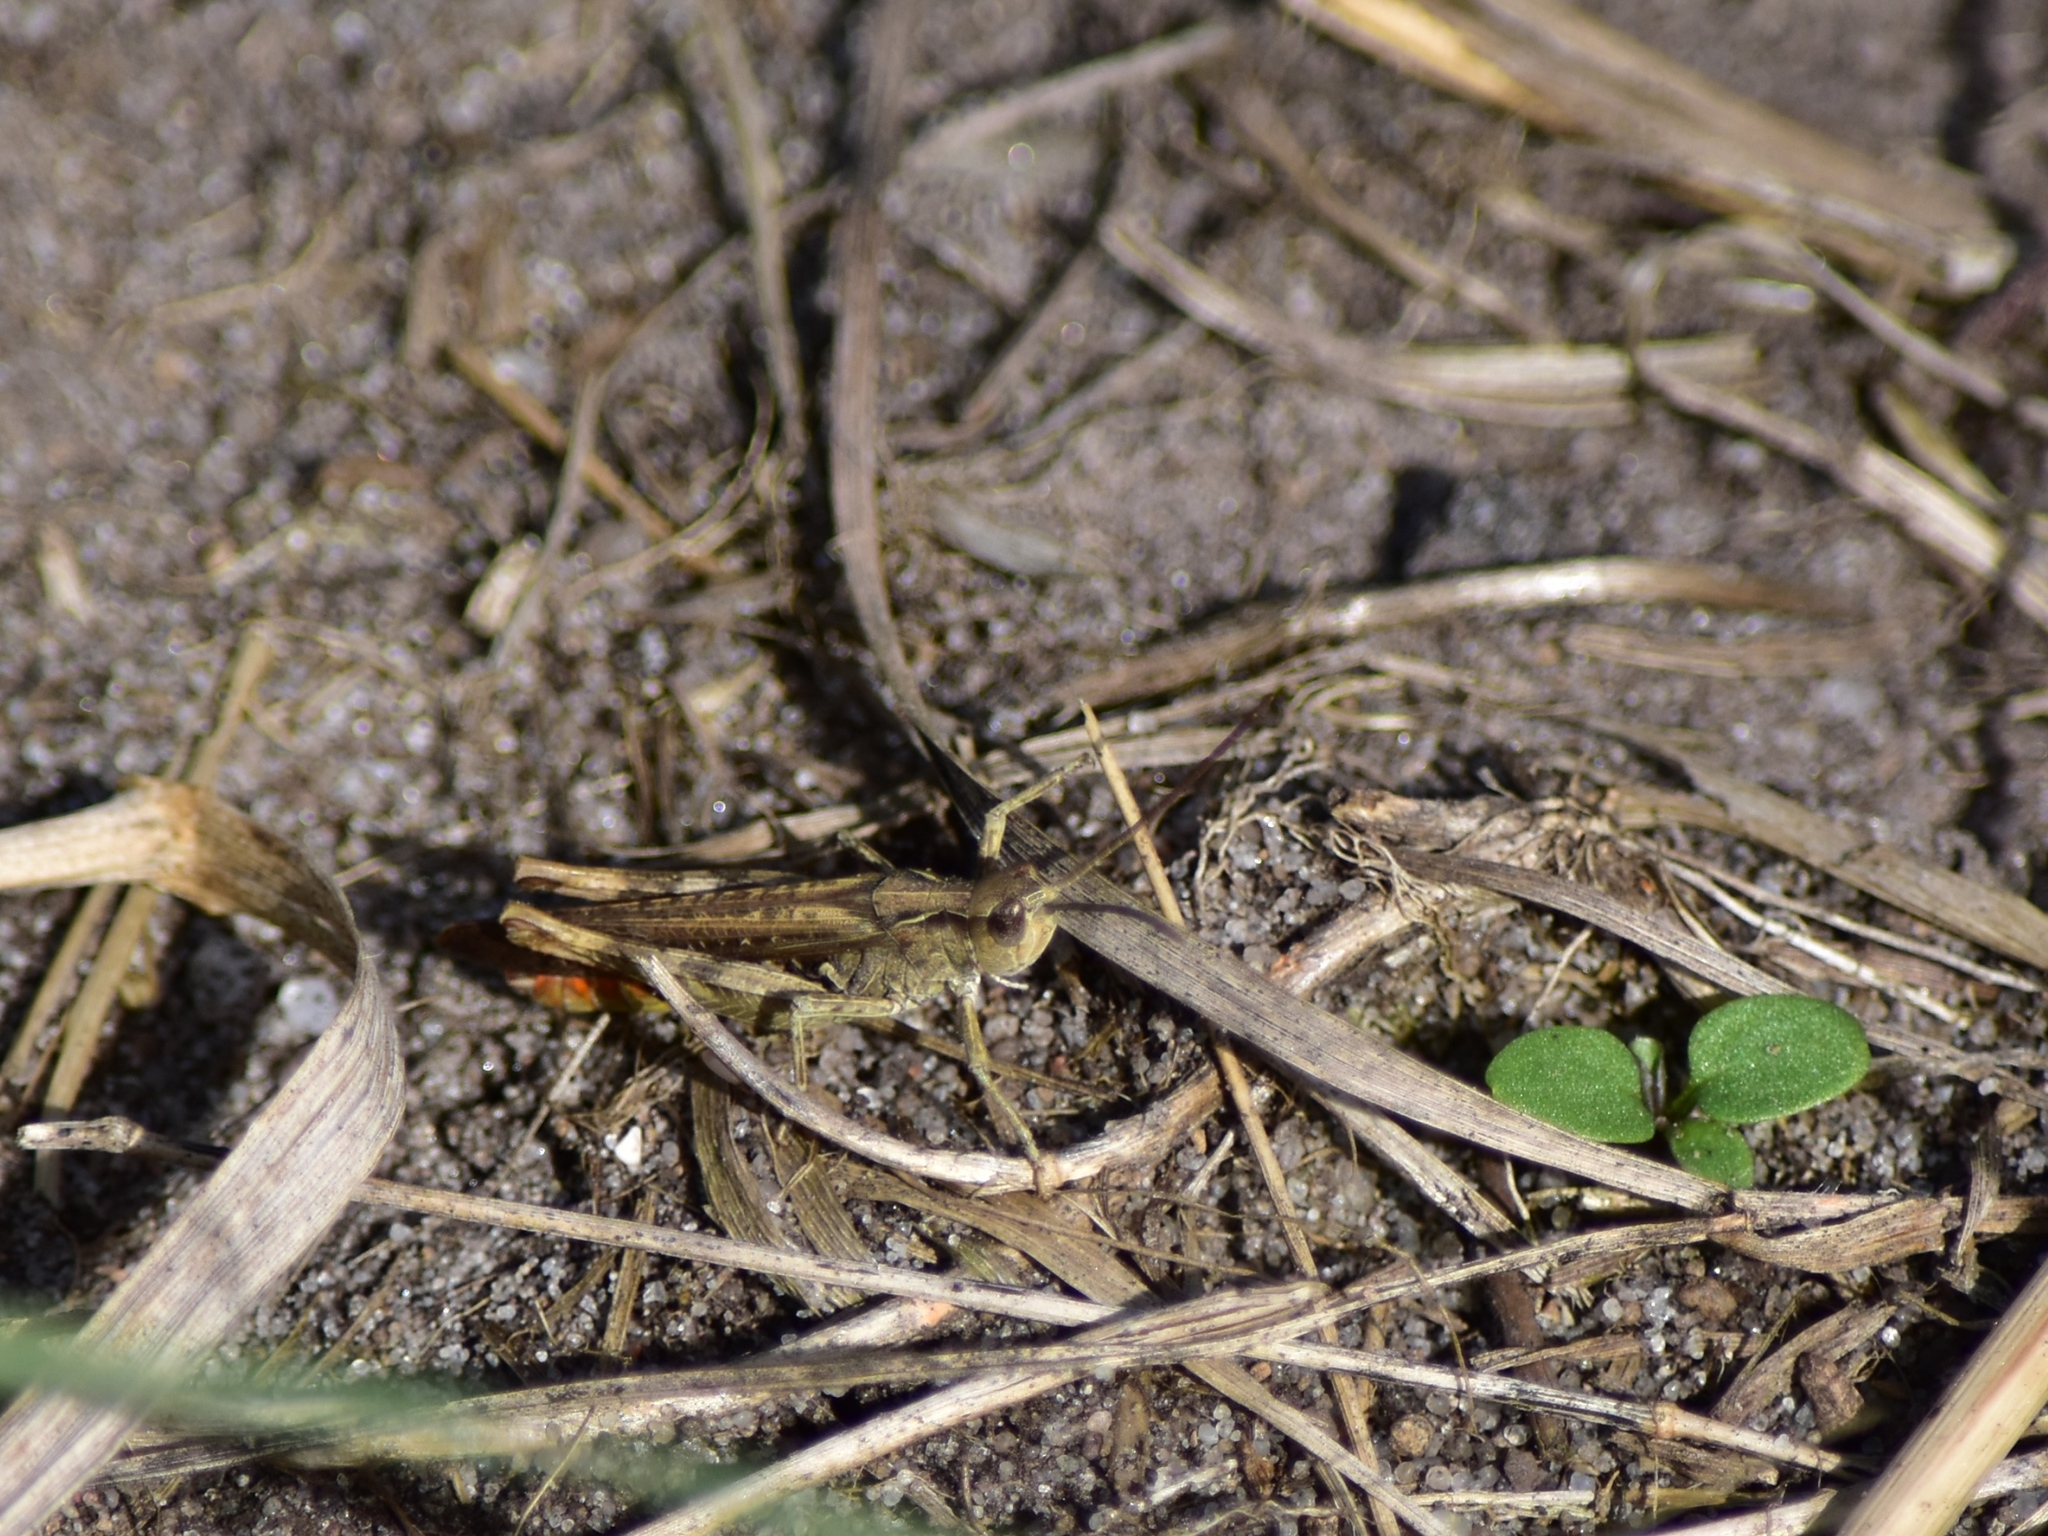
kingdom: Animalia
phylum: Arthropoda
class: Insecta
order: Orthoptera
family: Acrididae
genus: Chorthippus
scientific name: Chorthippus brunneus
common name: Field grasshopper
